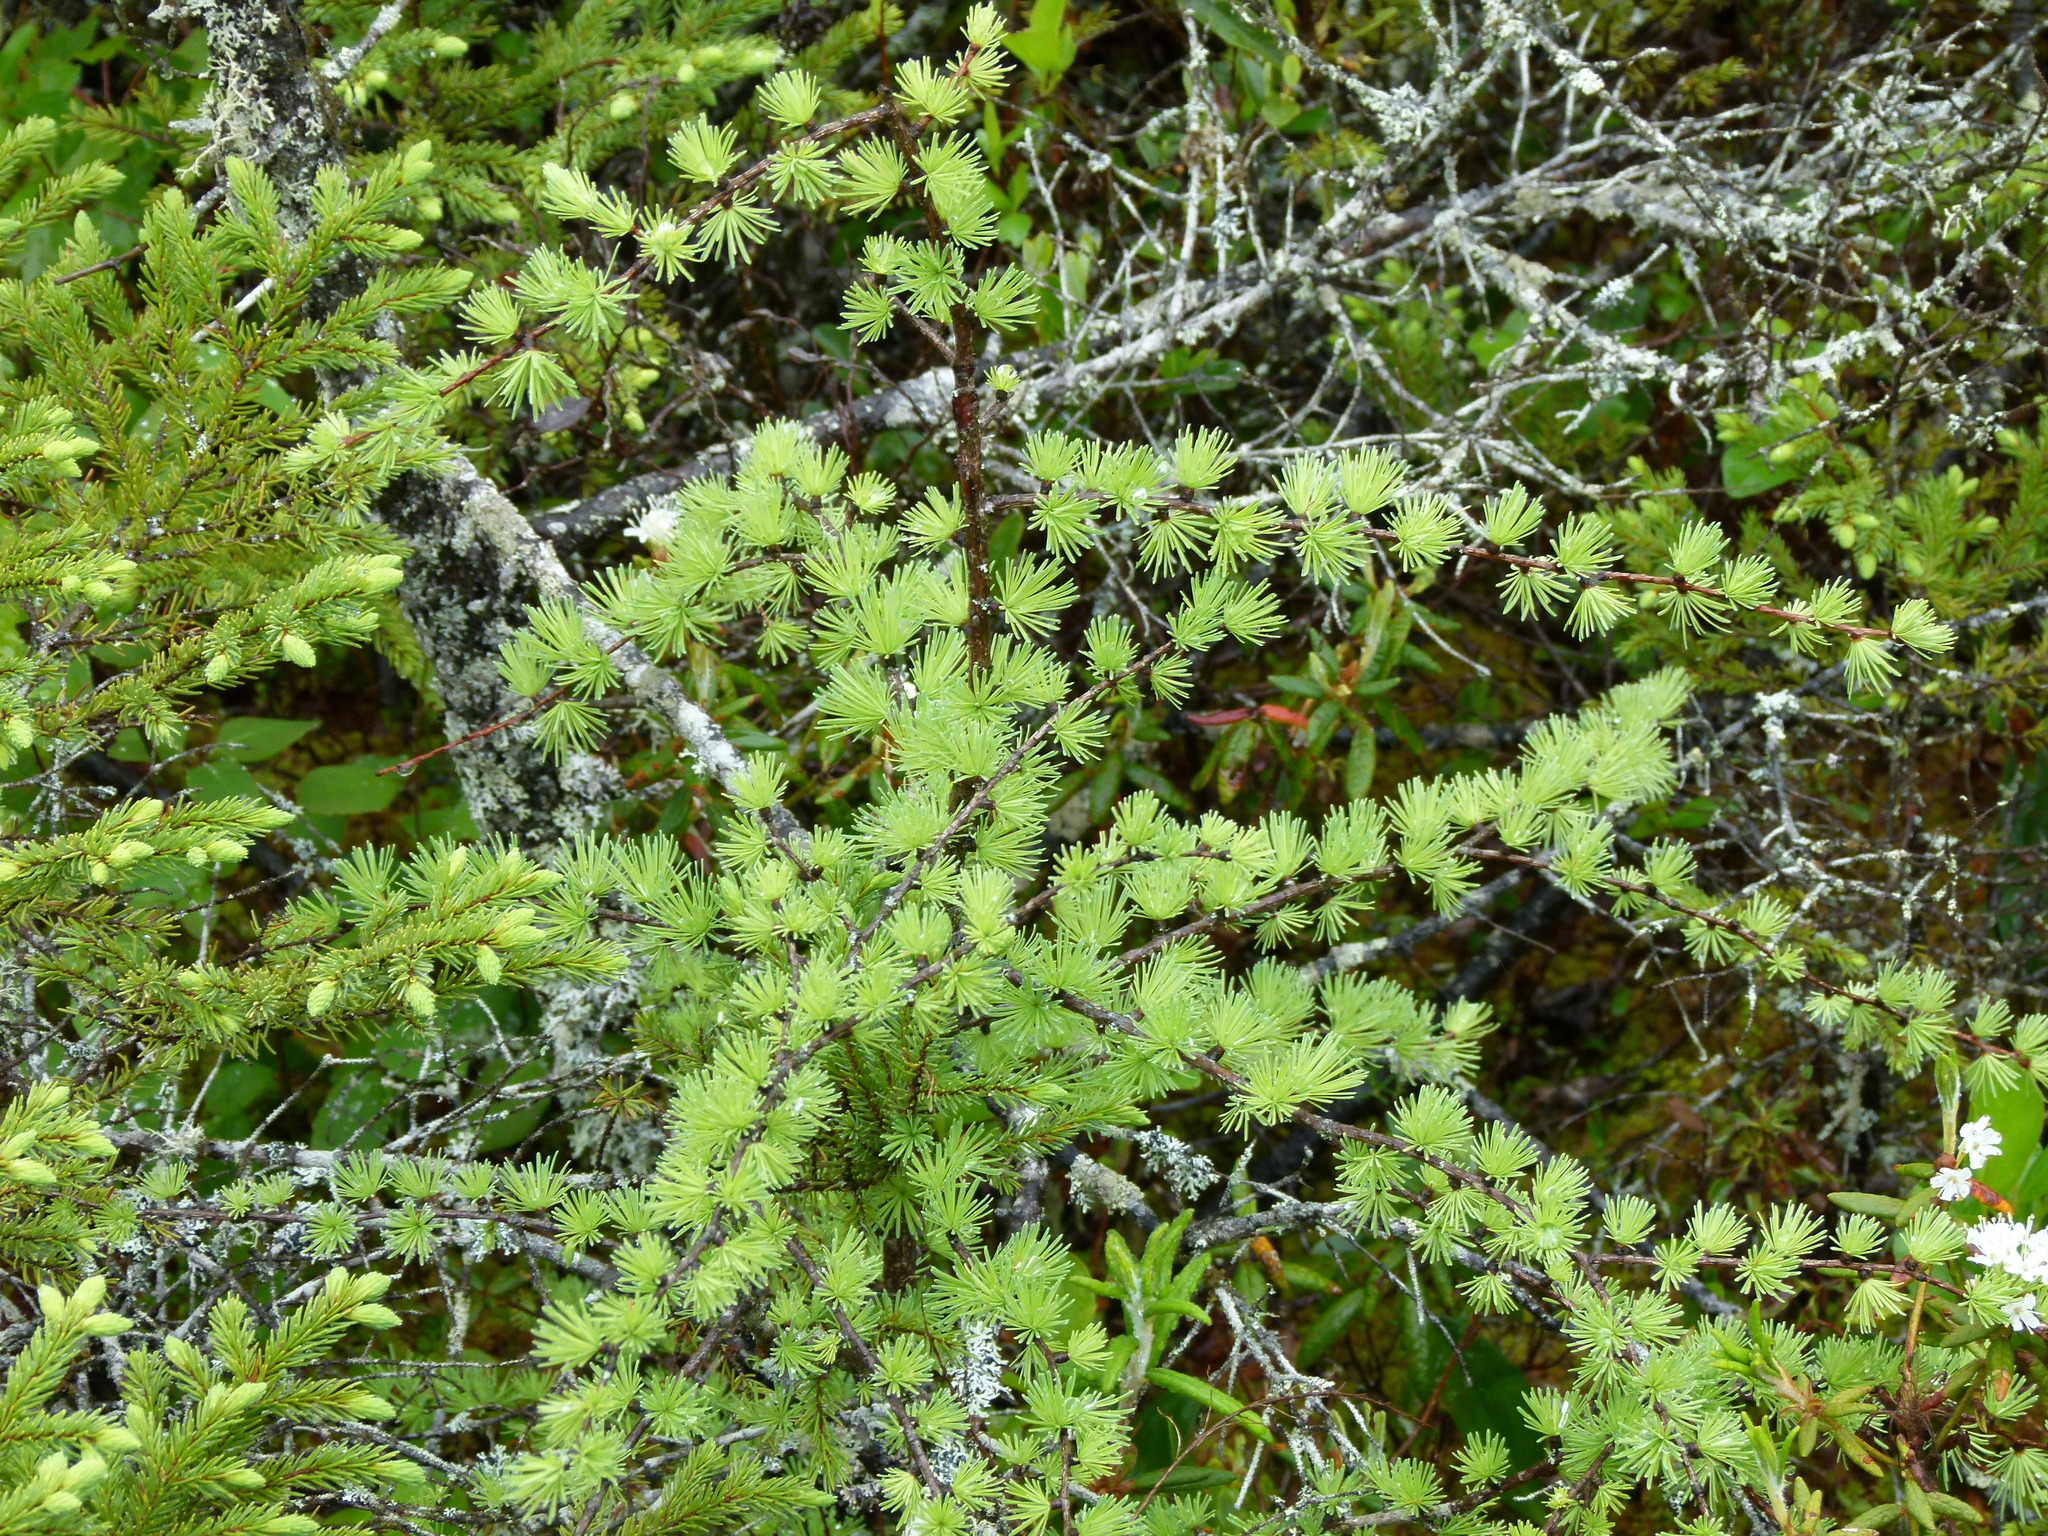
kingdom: Plantae
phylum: Tracheophyta
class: Pinopsida
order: Pinales
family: Pinaceae
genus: Larix
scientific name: Larix laricina
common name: American larch
